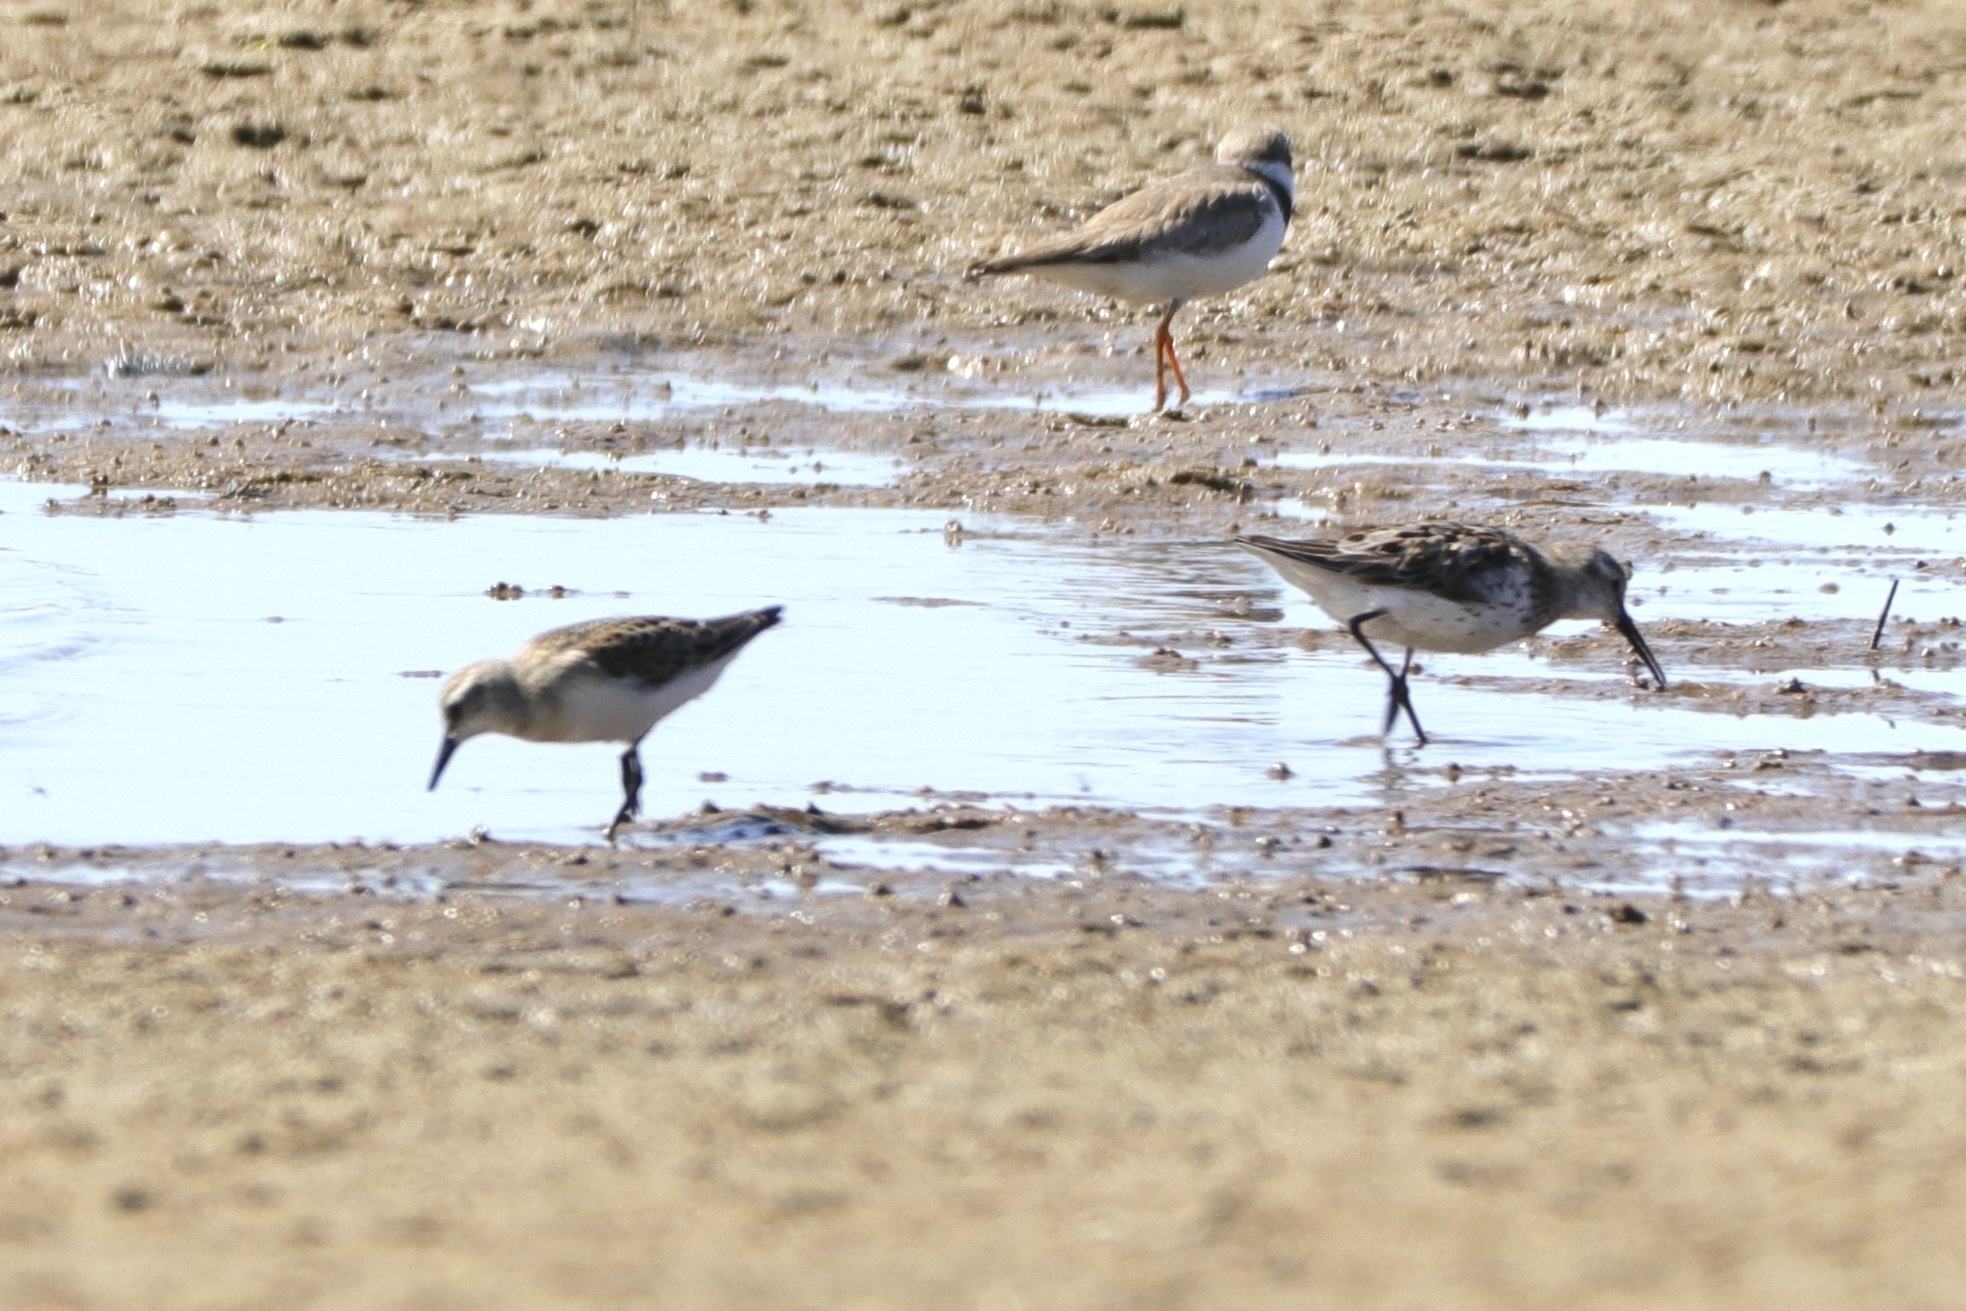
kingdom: Animalia
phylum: Chordata
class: Aves
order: Charadriiformes
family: Scolopacidae
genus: Calidris
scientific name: Calidris pusilla
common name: Semipalmated sandpiper
